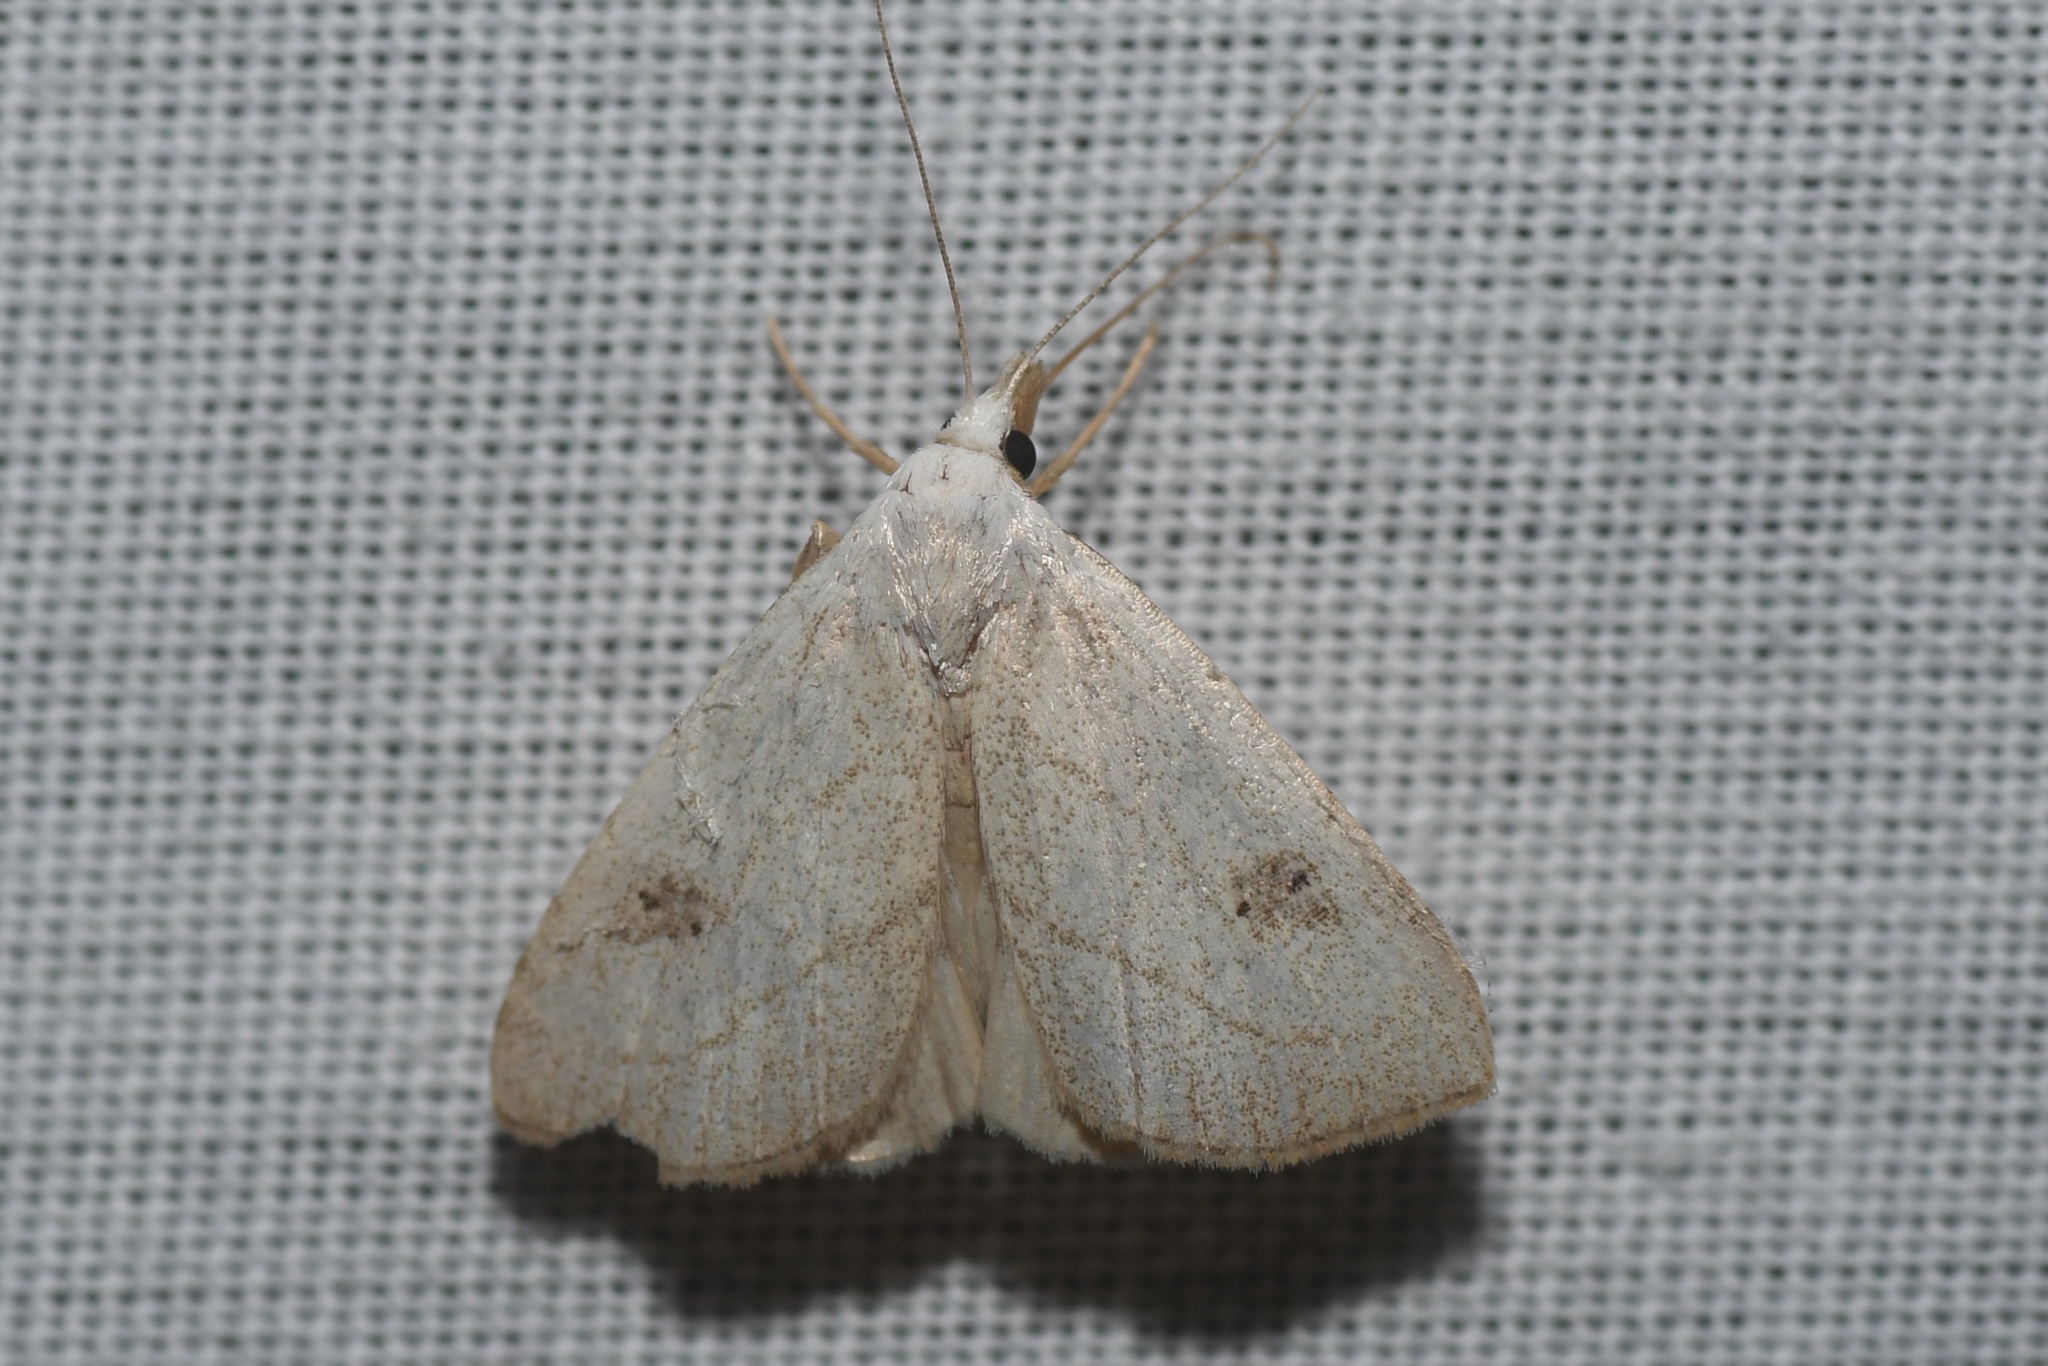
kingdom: Animalia
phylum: Arthropoda
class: Insecta
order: Lepidoptera
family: Erebidae
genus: Rivula
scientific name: Rivula propinqualis
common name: Spotted grass moth
